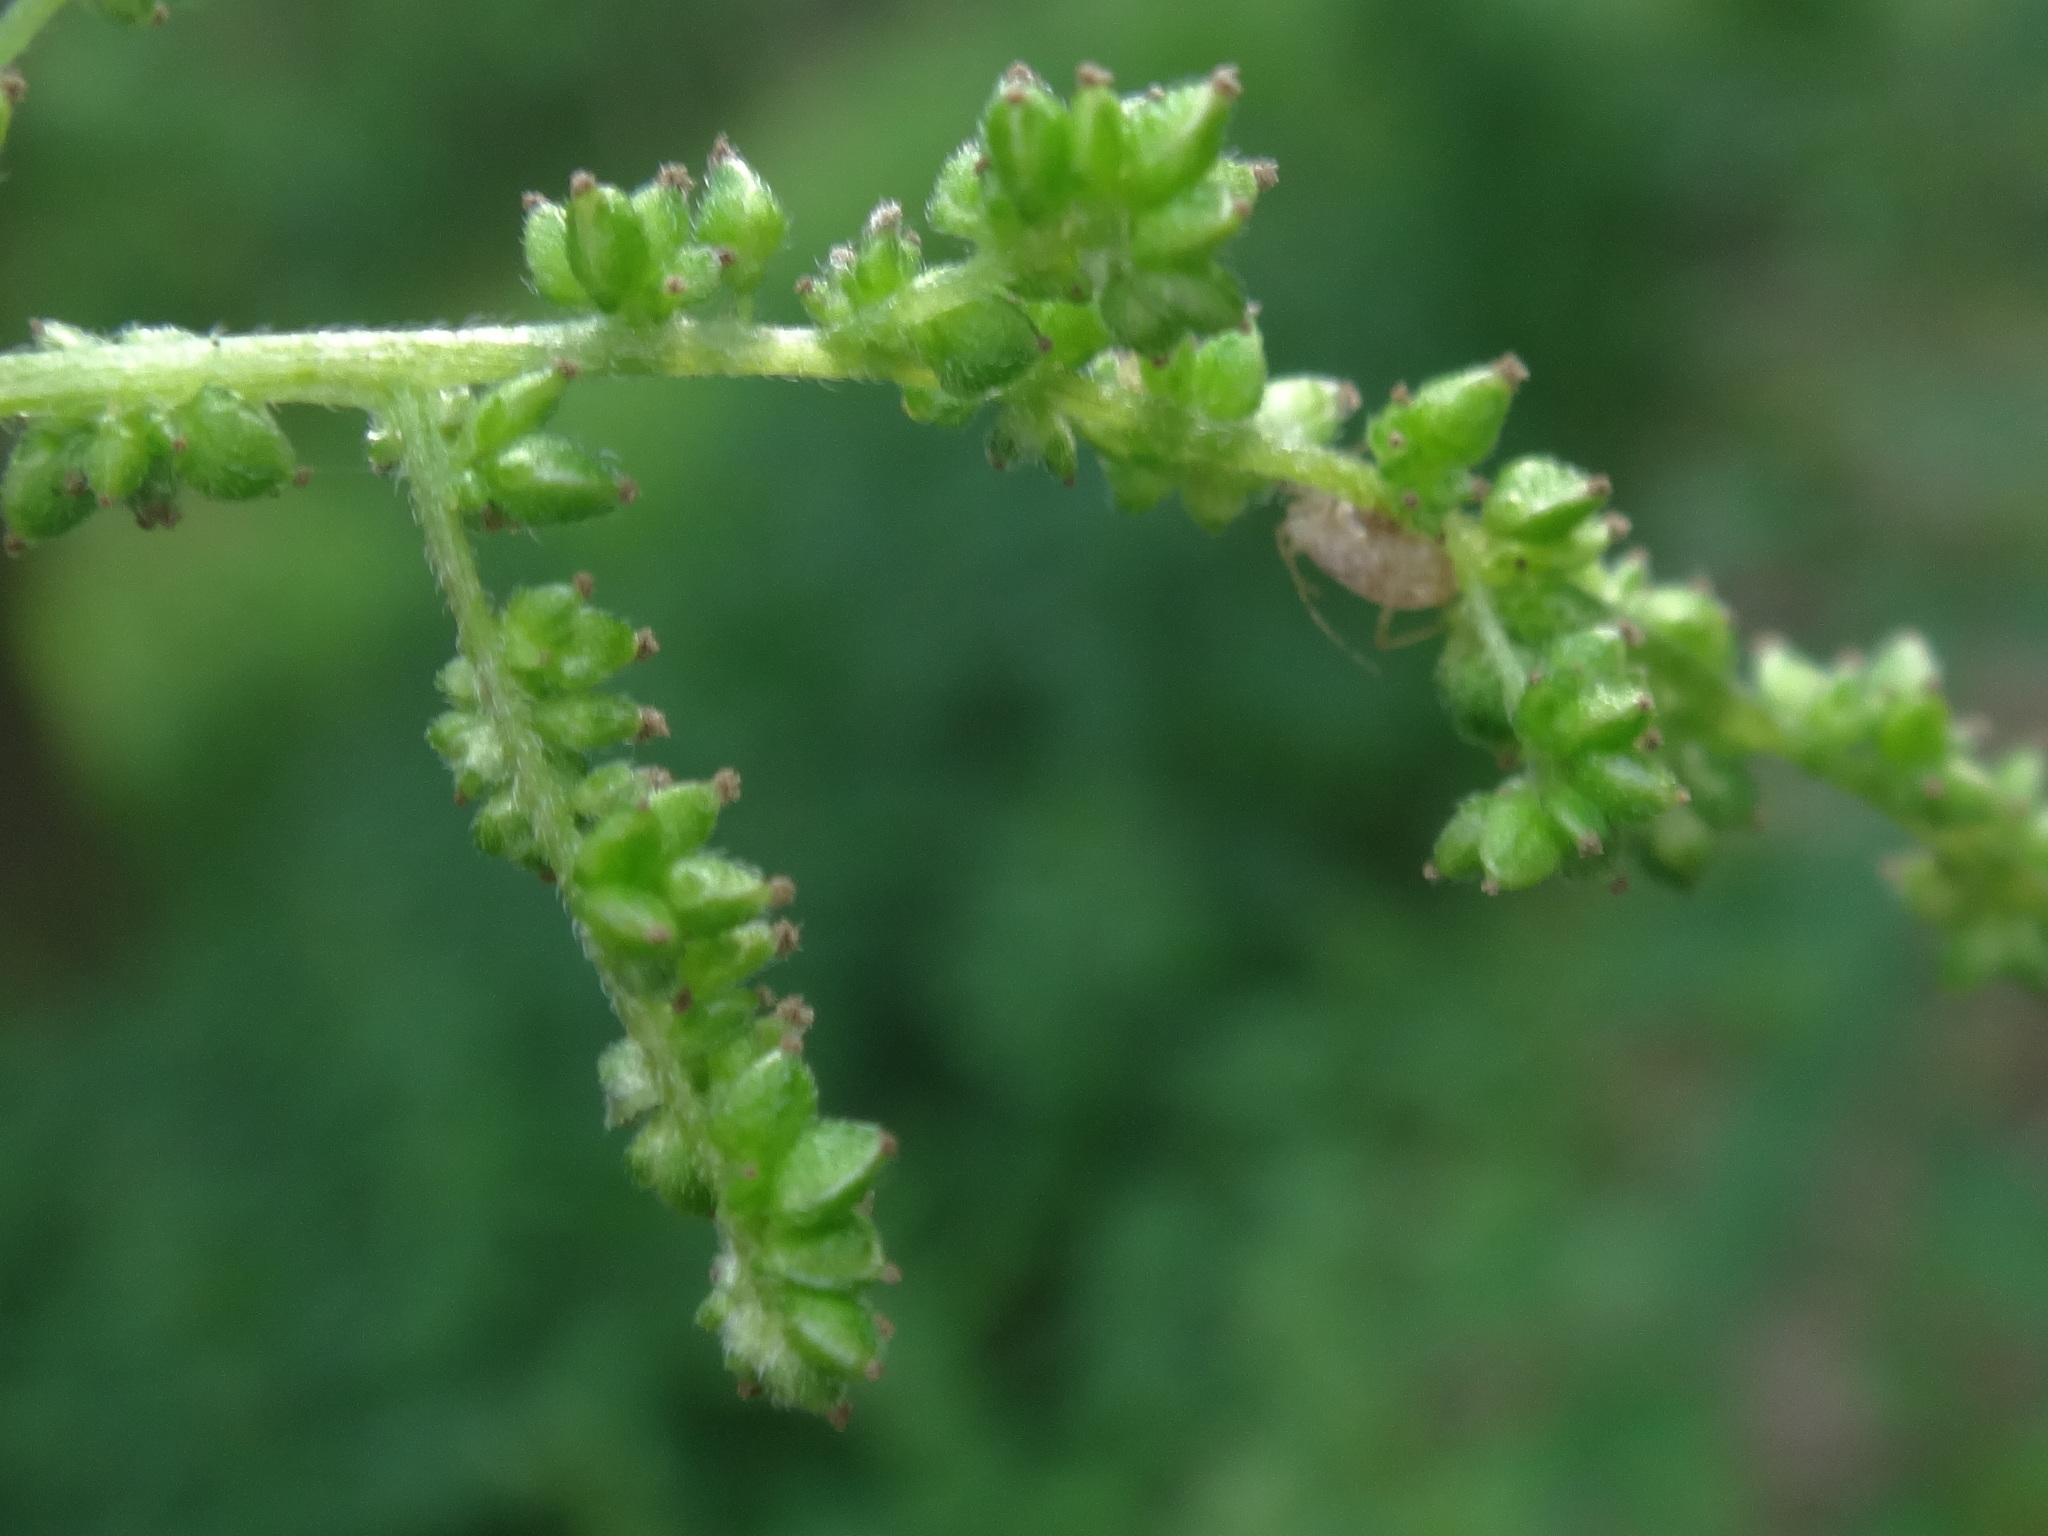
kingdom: Plantae
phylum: Tracheophyta
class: Magnoliopsida
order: Rosales
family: Urticaceae
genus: Urtica
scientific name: Urtica dioica
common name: Common nettle
